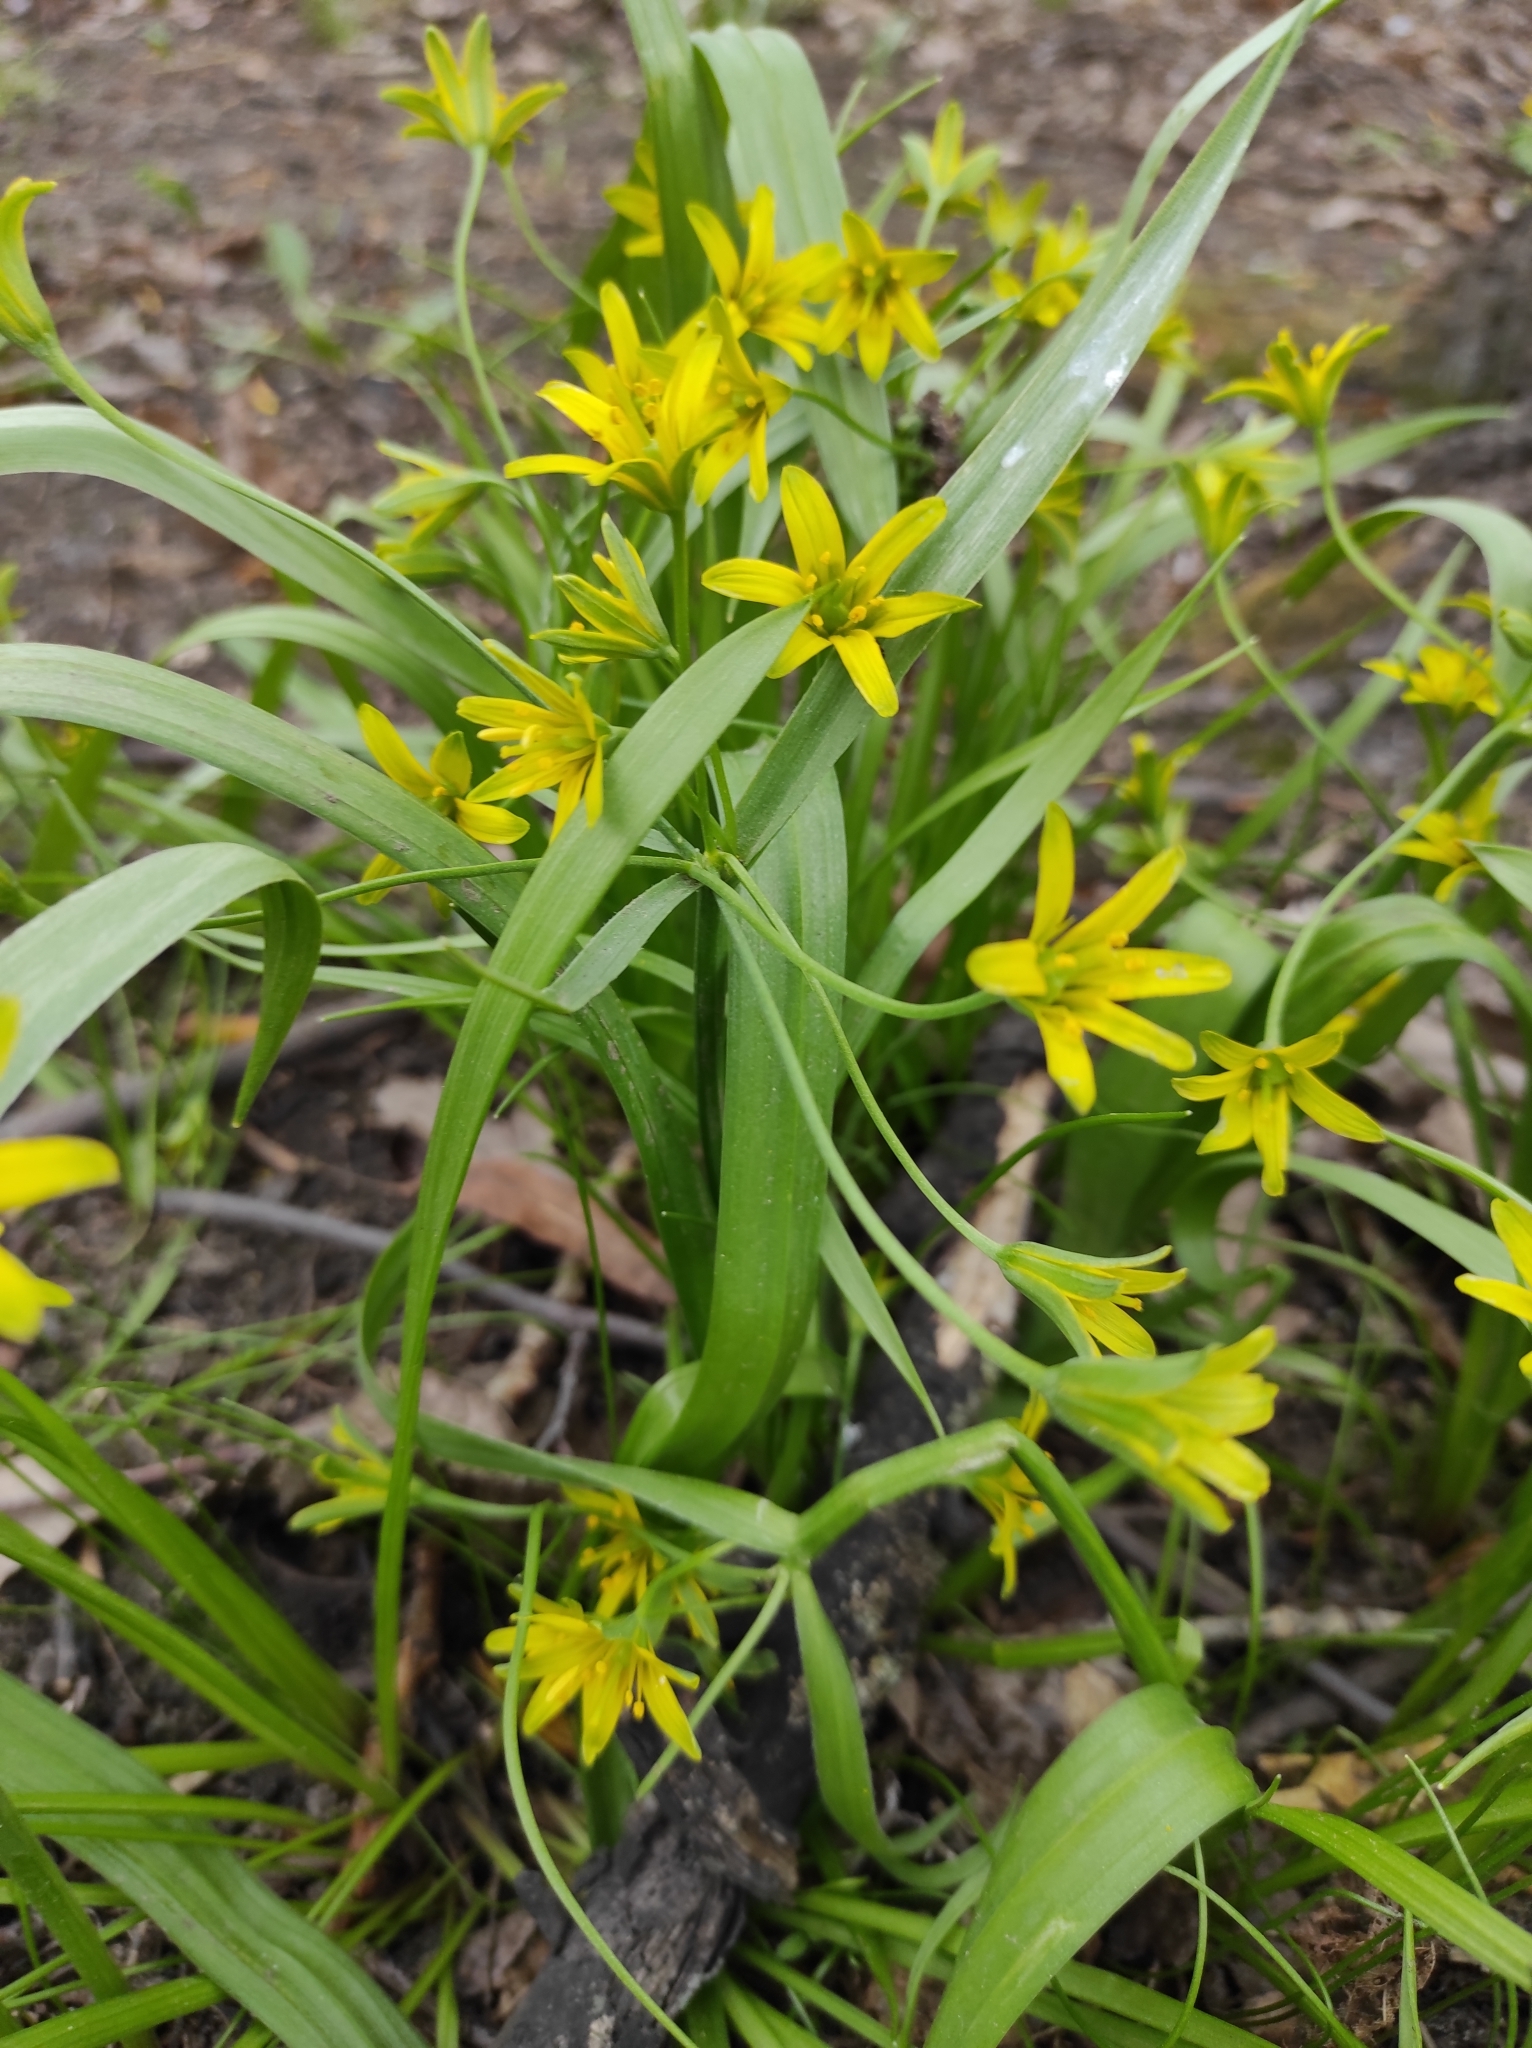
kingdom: Plantae
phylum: Tracheophyta
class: Liliopsida
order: Liliales
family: Liliaceae
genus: Gagea
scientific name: Gagea lutea
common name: Yellow star-of-bethlehem
